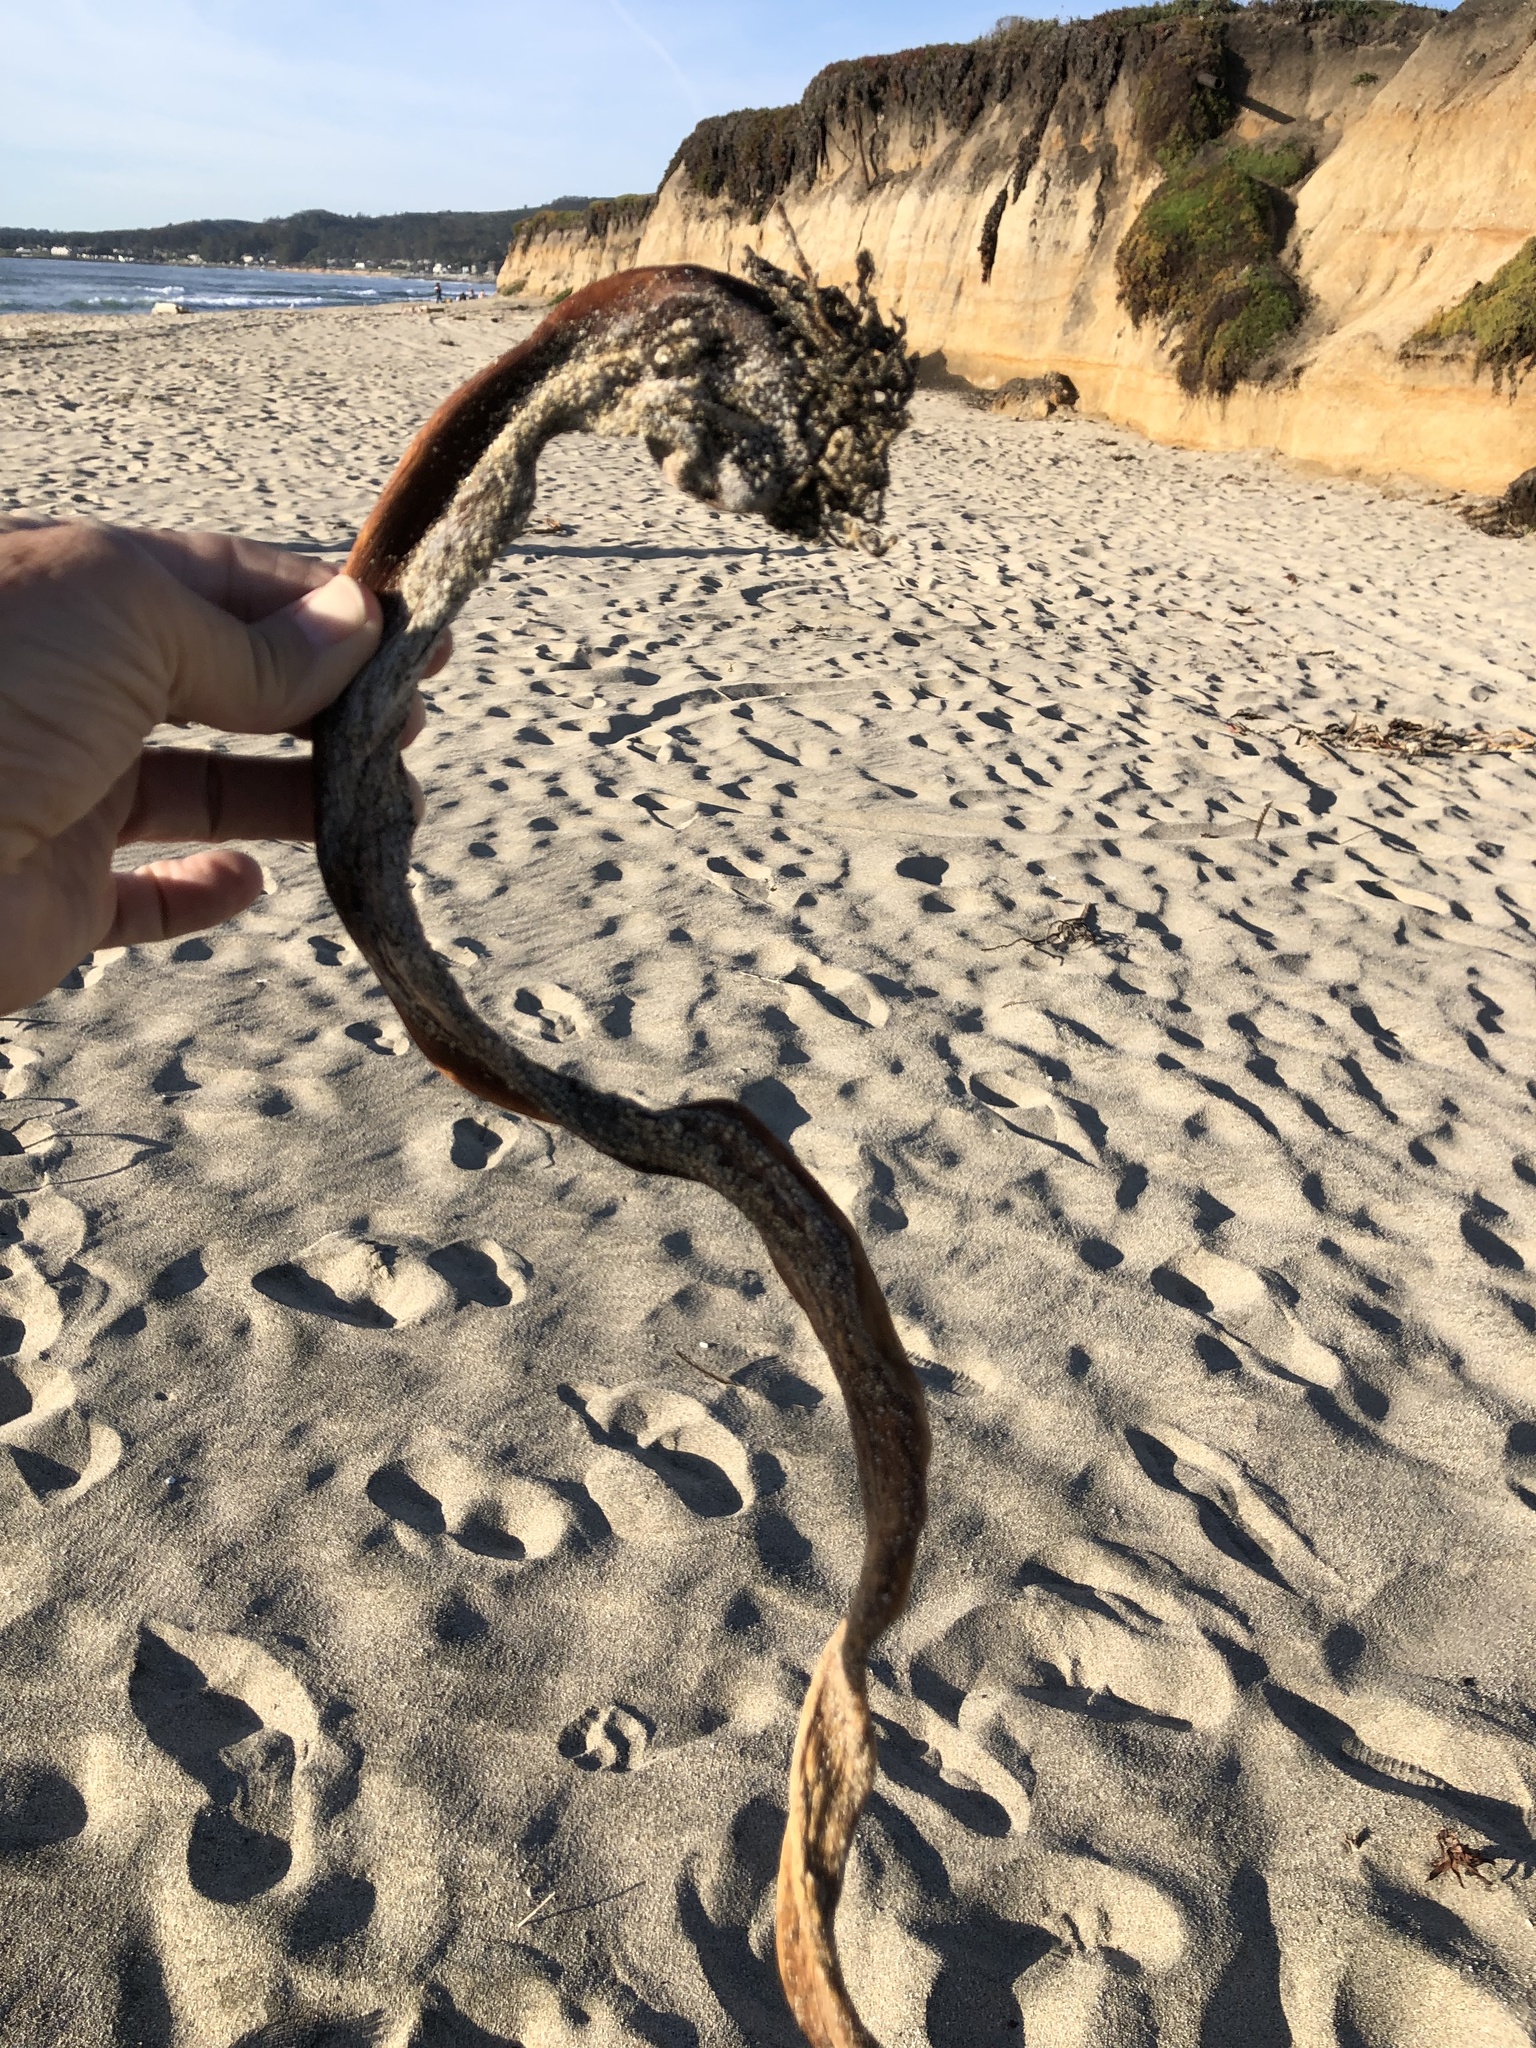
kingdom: Chromista
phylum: Ochrophyta
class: Phaeophyceae
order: Laminariales
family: Alariaceae
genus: Pterygophora
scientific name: Pterygophora californica
